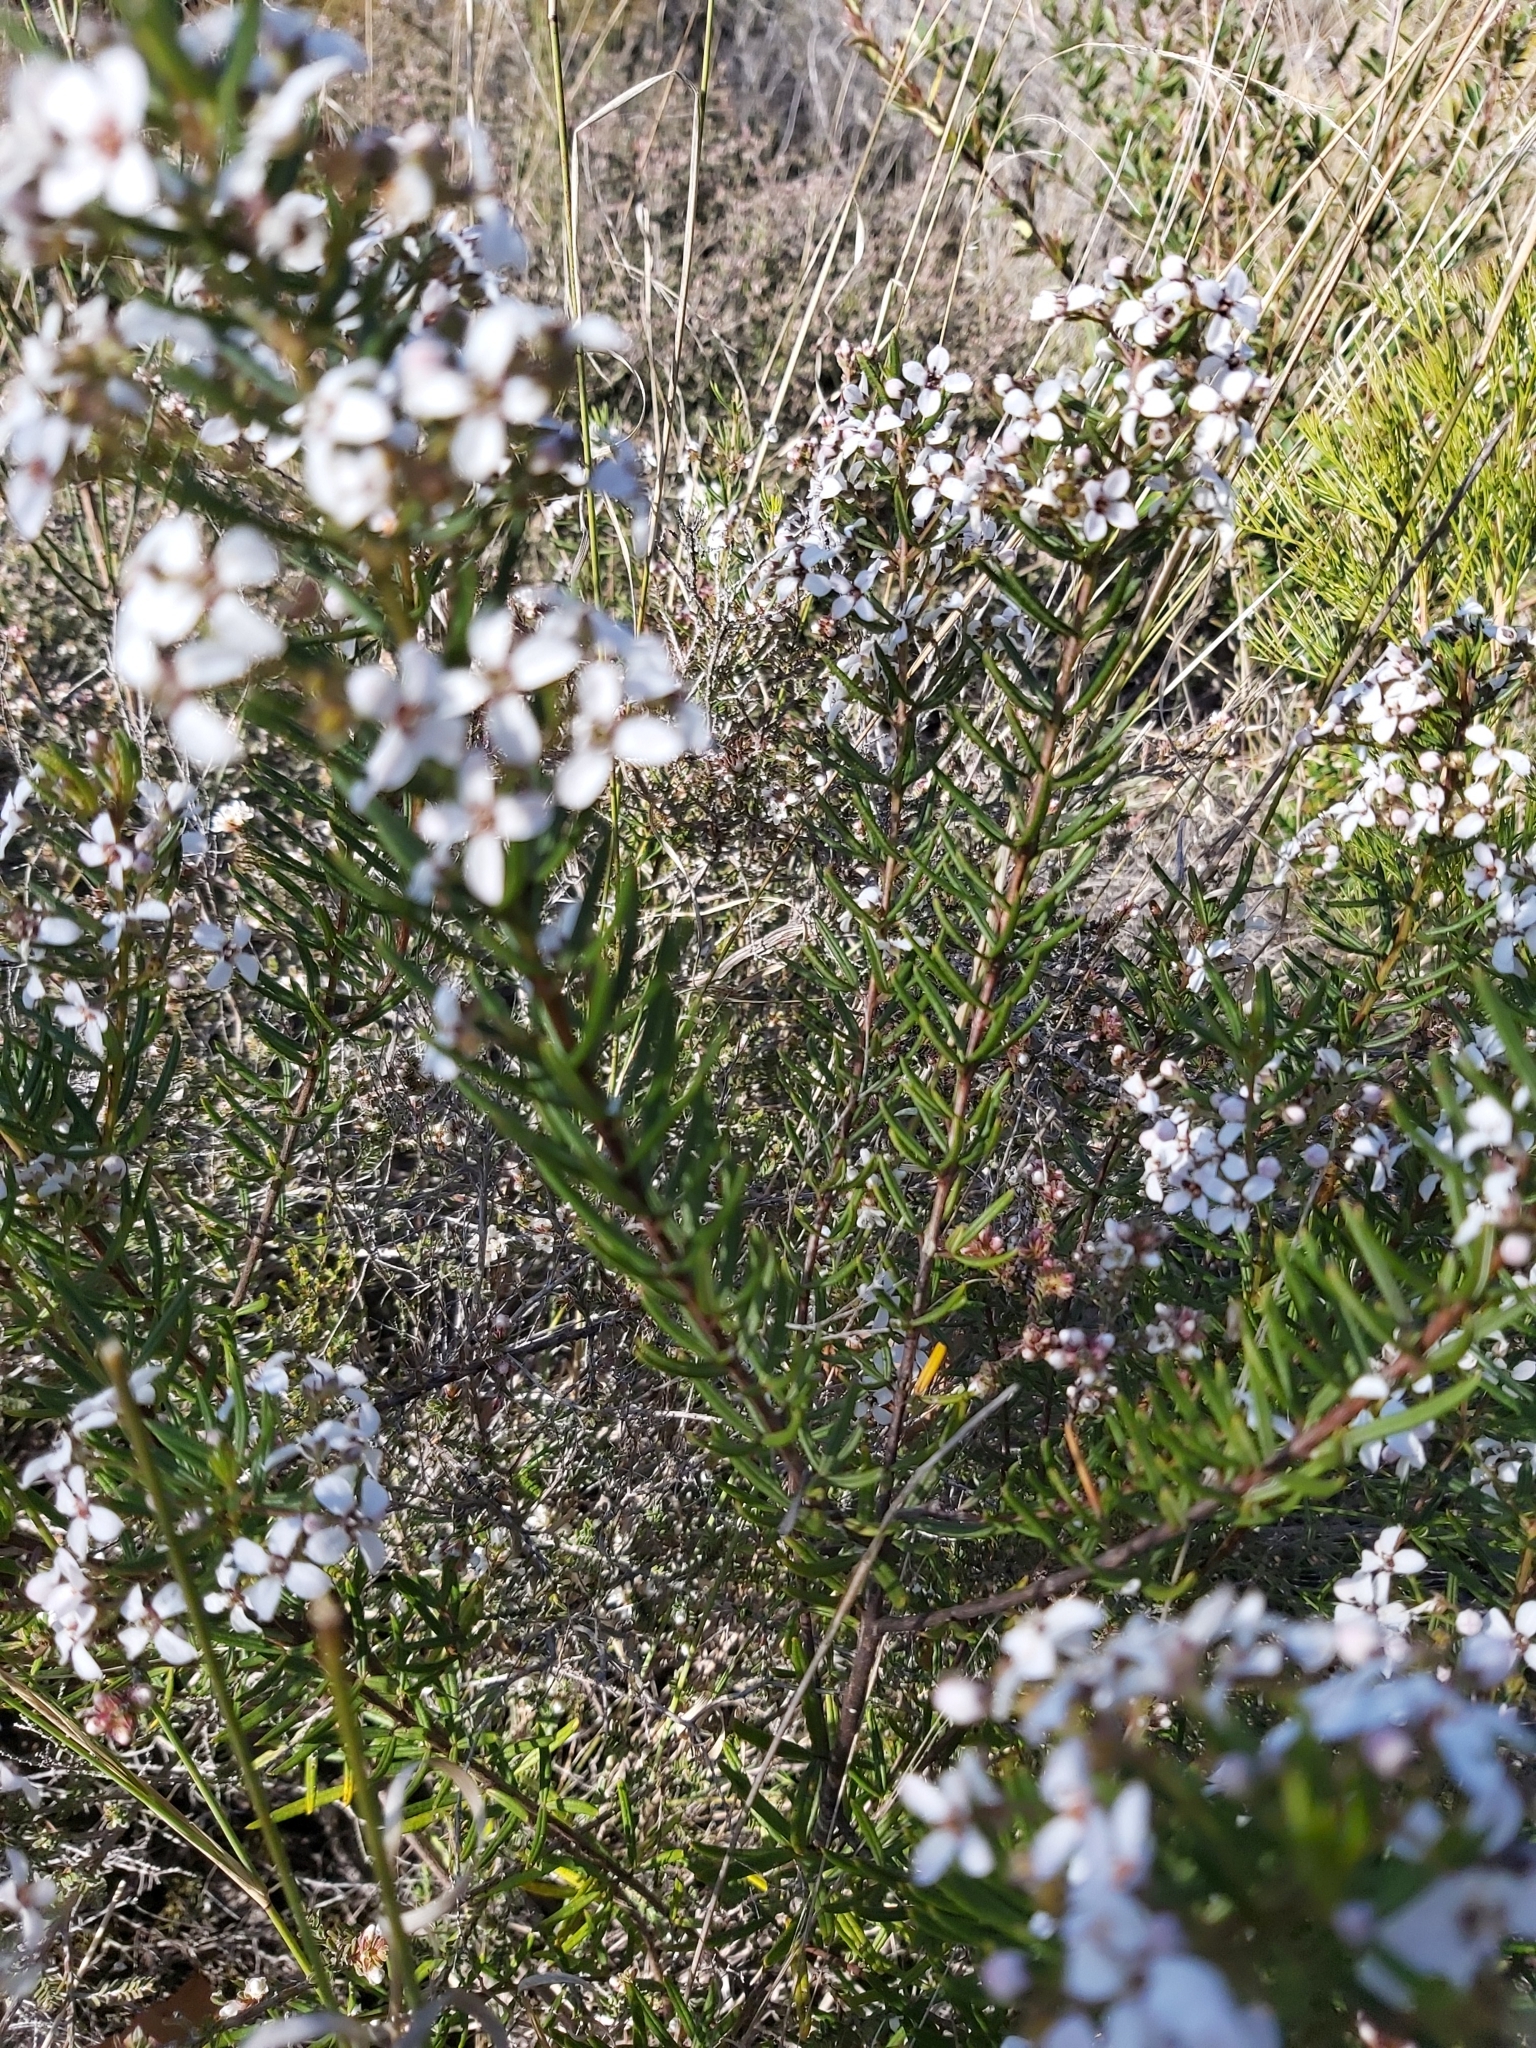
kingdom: Plantae
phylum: Tracheophyta
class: Magnoliopsida
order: Sapindales
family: Rutaceae
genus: Zieria
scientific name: Zieria laevigata
